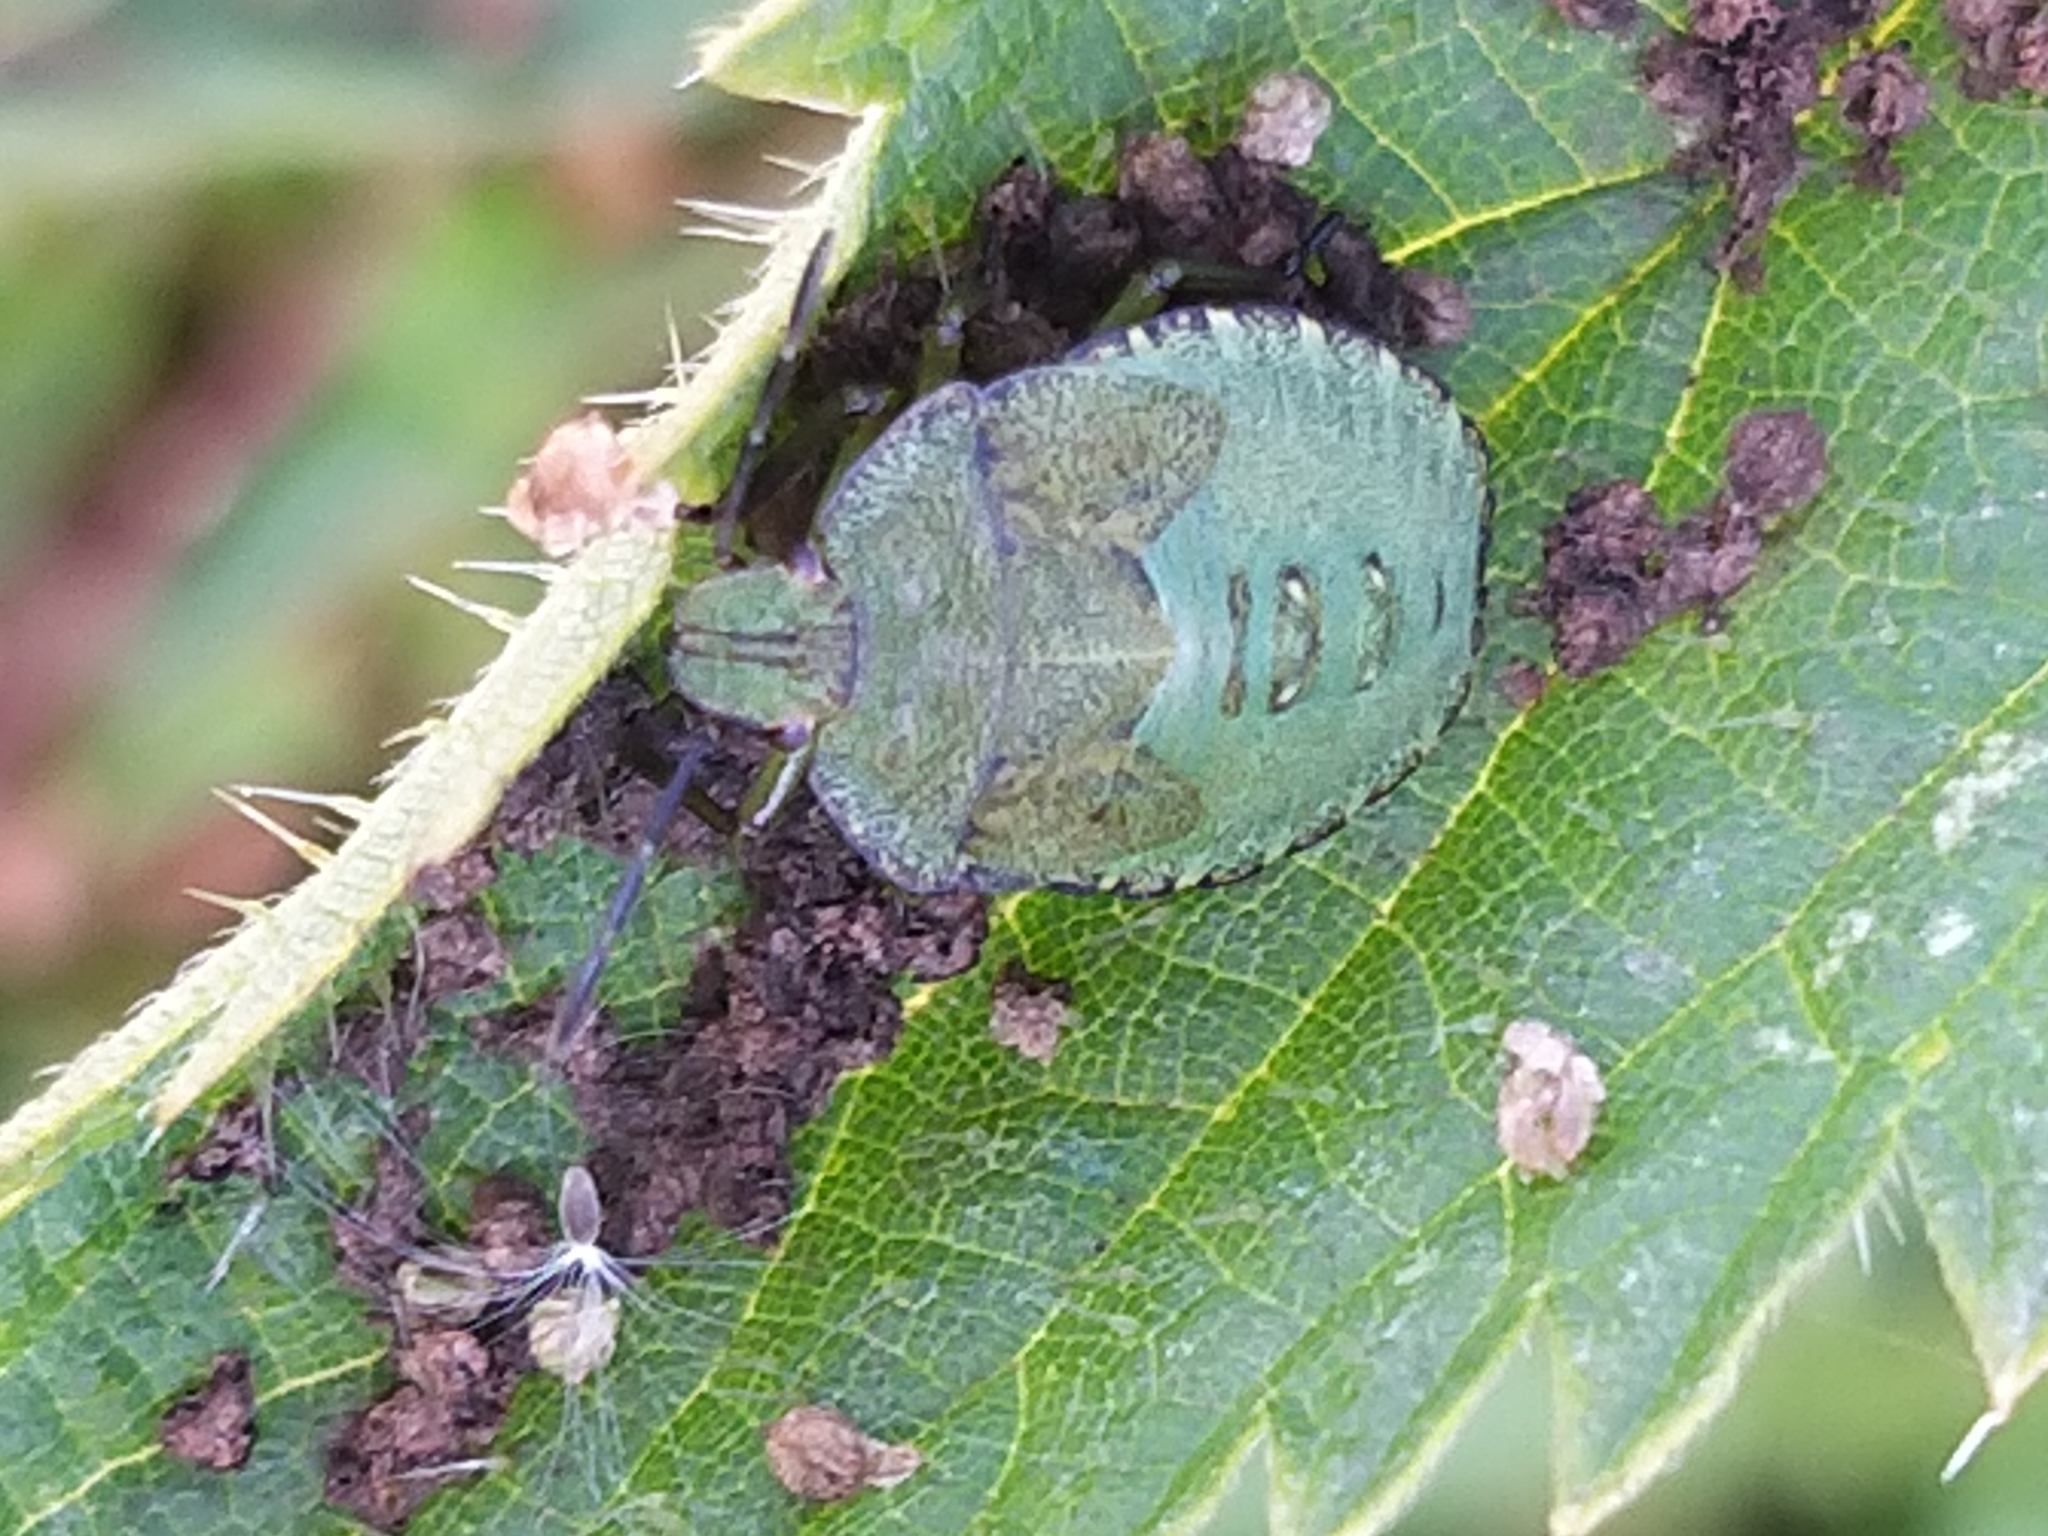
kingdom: Animalia
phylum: Arthropoda
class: Insecta
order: Hemiptera
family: Pentatomidae
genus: Palomena
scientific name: Palomena prasina
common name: Green shieldbug
